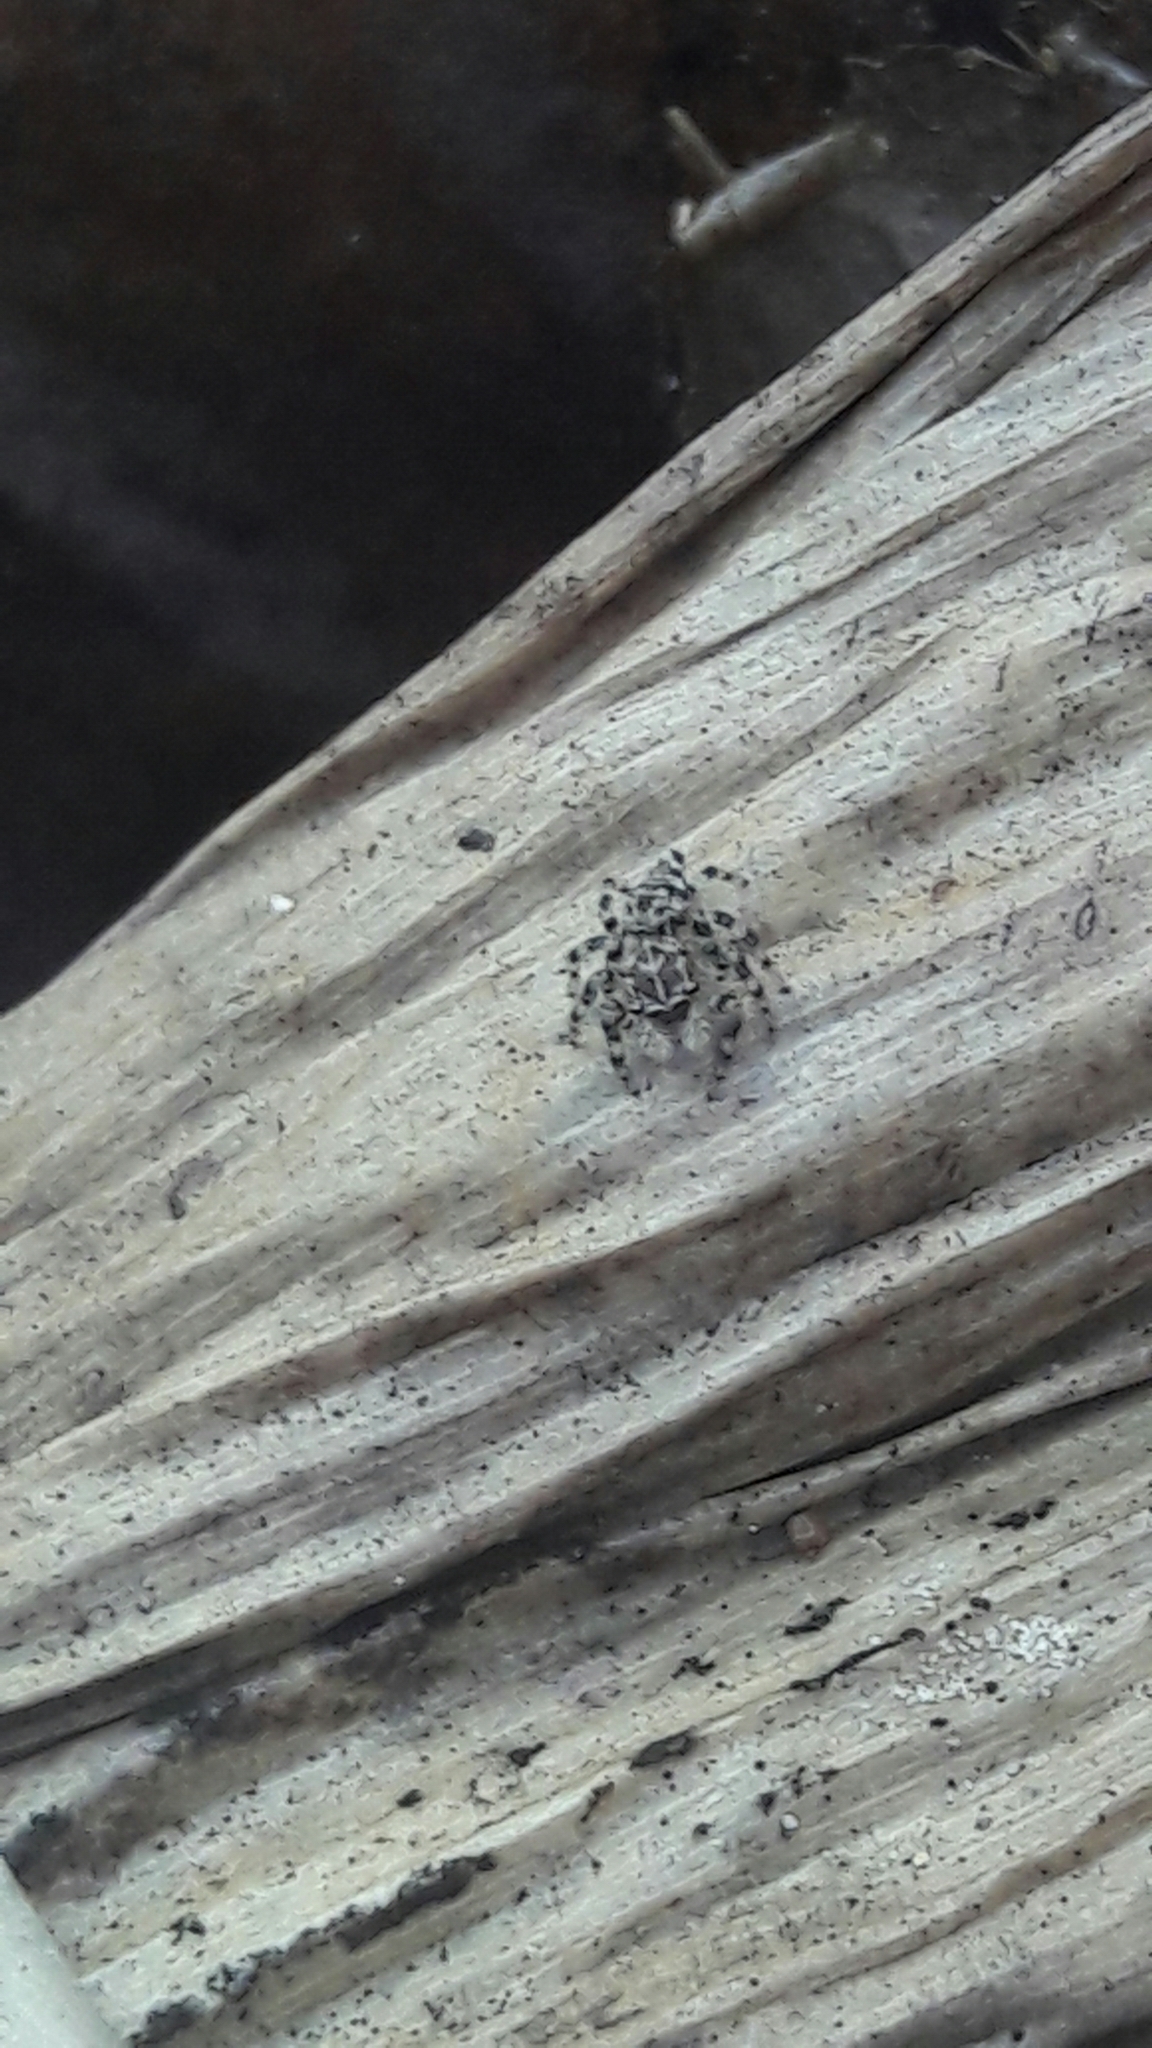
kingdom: Animalia
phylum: Arthropoda
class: Arachnida
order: Araneae
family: Salticidae
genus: Sumampattus
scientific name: Sumampattus quinqueradiatus
